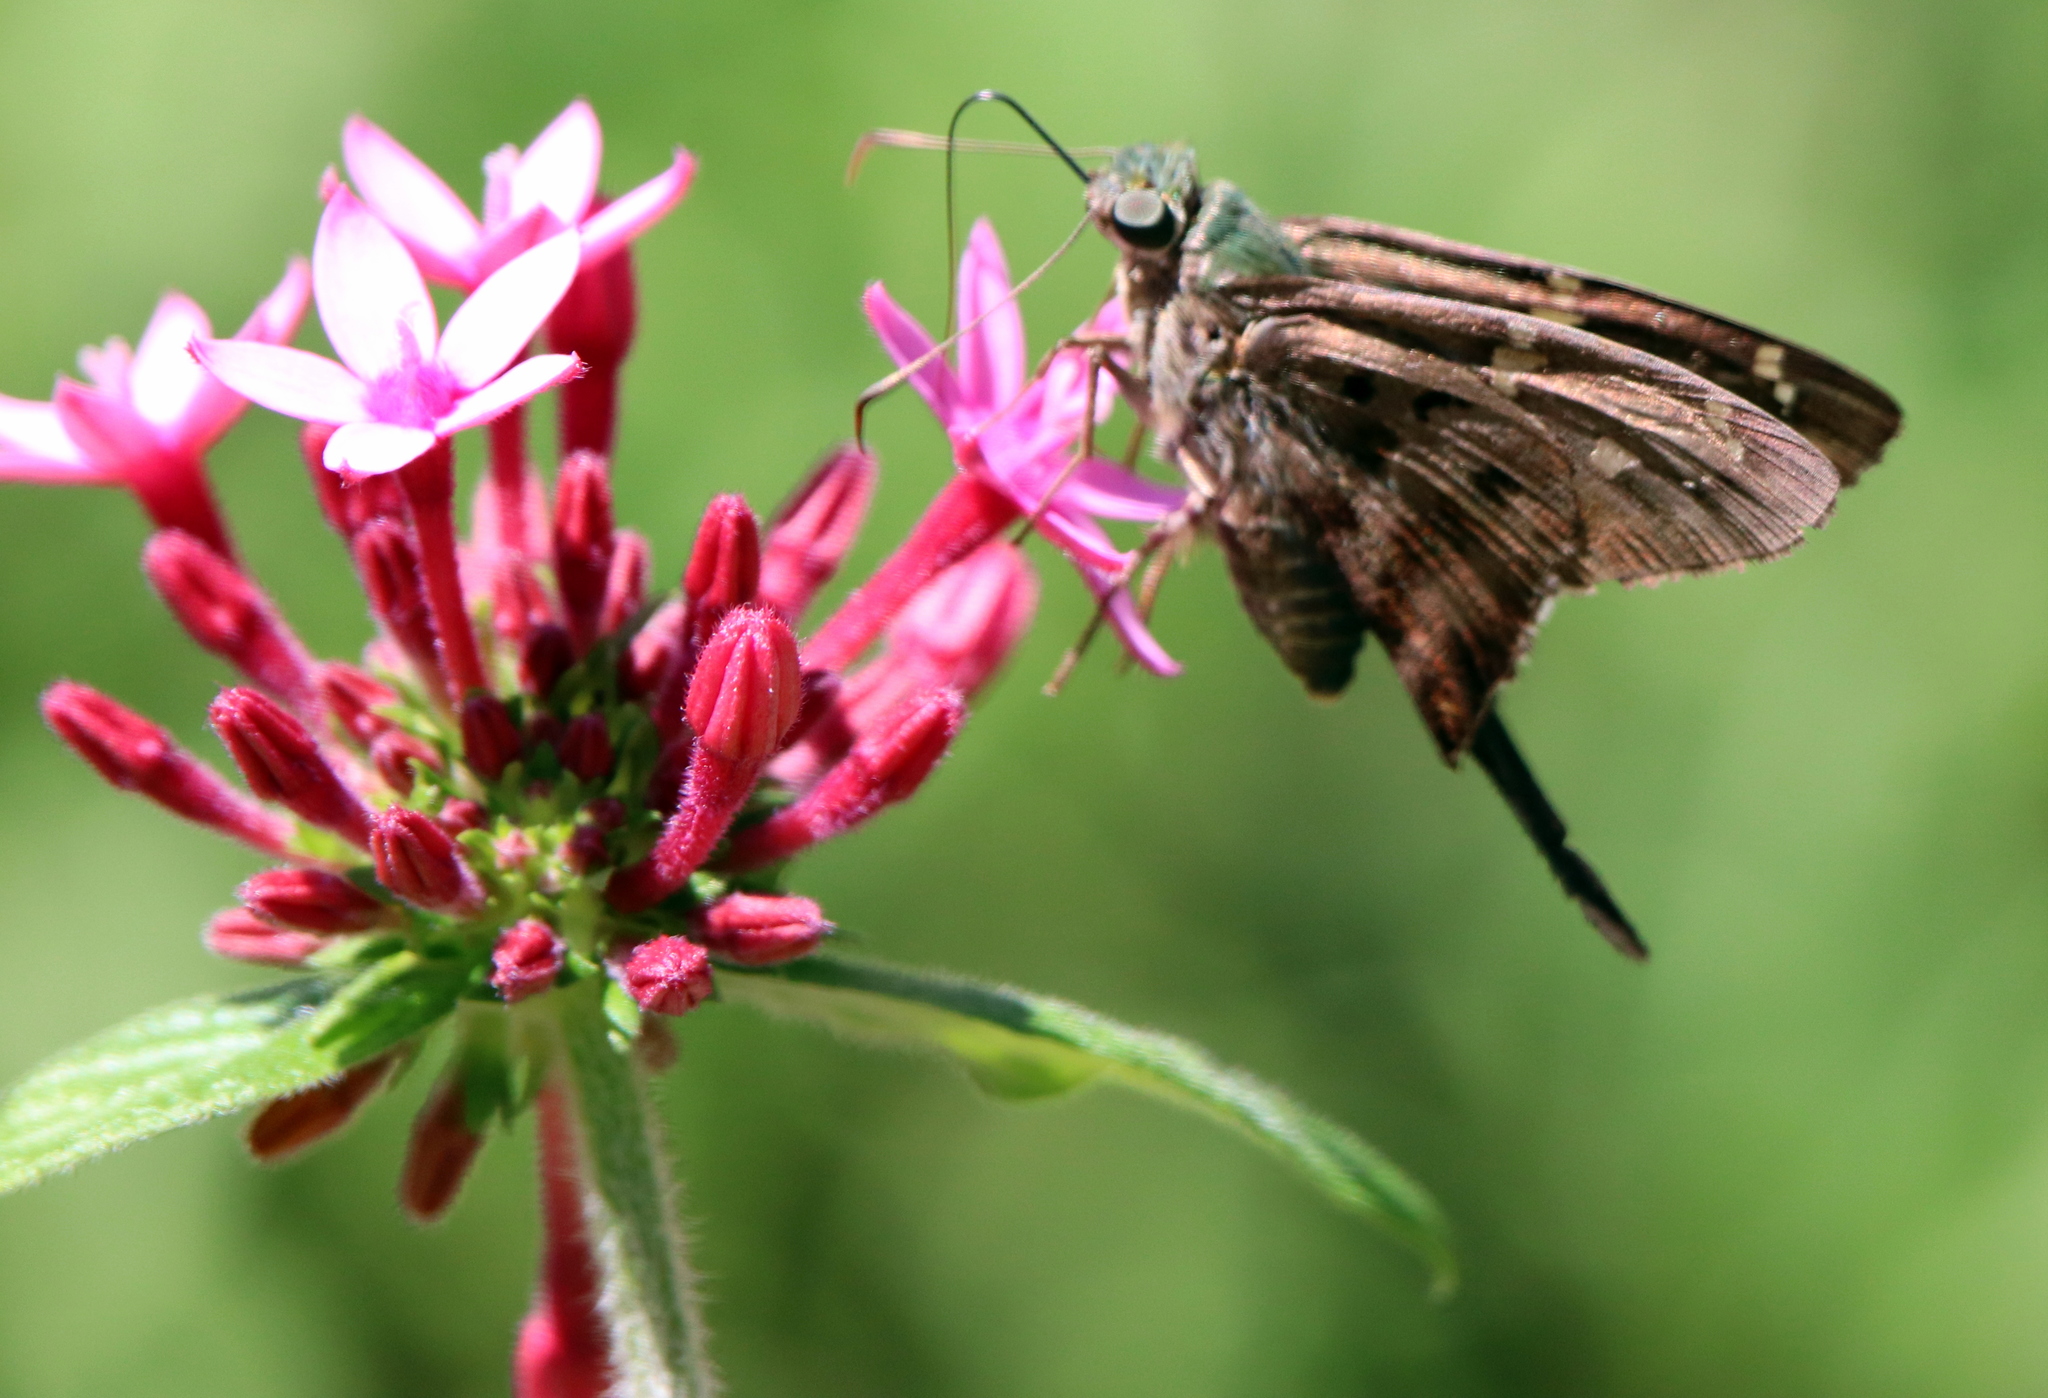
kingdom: Animalia
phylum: Arthropoda
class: Insecta
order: Lepidoptera
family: Hesperiidae
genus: Urbanus
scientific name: Urbanus proteus
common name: Long-tailed skipper
